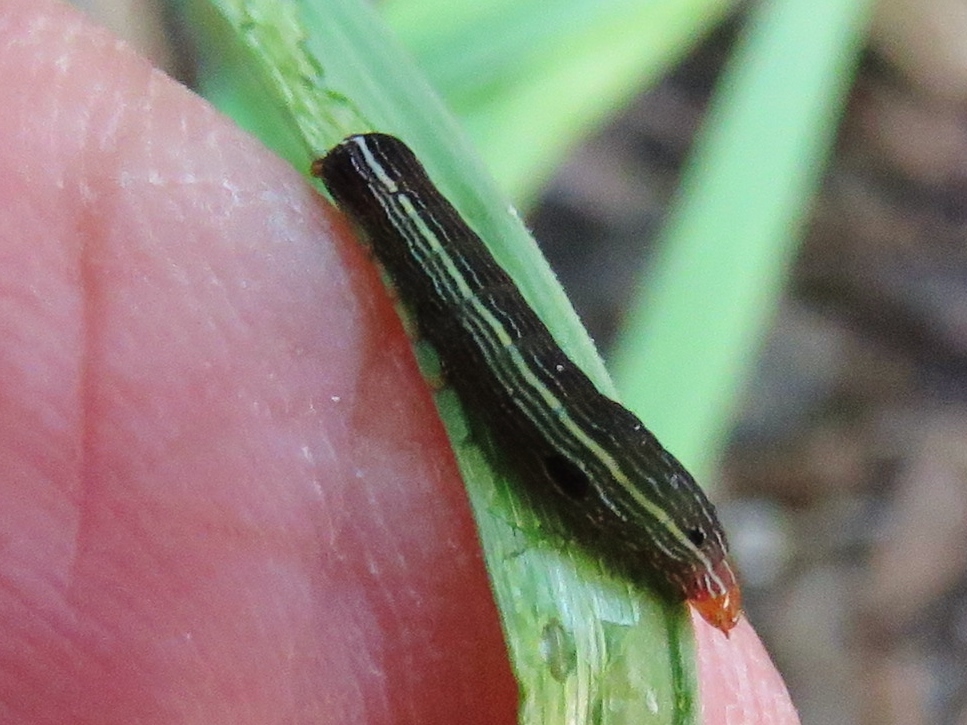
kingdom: Animalia
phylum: Arthropoda
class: Insecta
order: Lepidoptera
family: Noctuidae
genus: Spodoptera
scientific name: Spodoptera ornithogalli
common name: Yellow-striped armyworm
